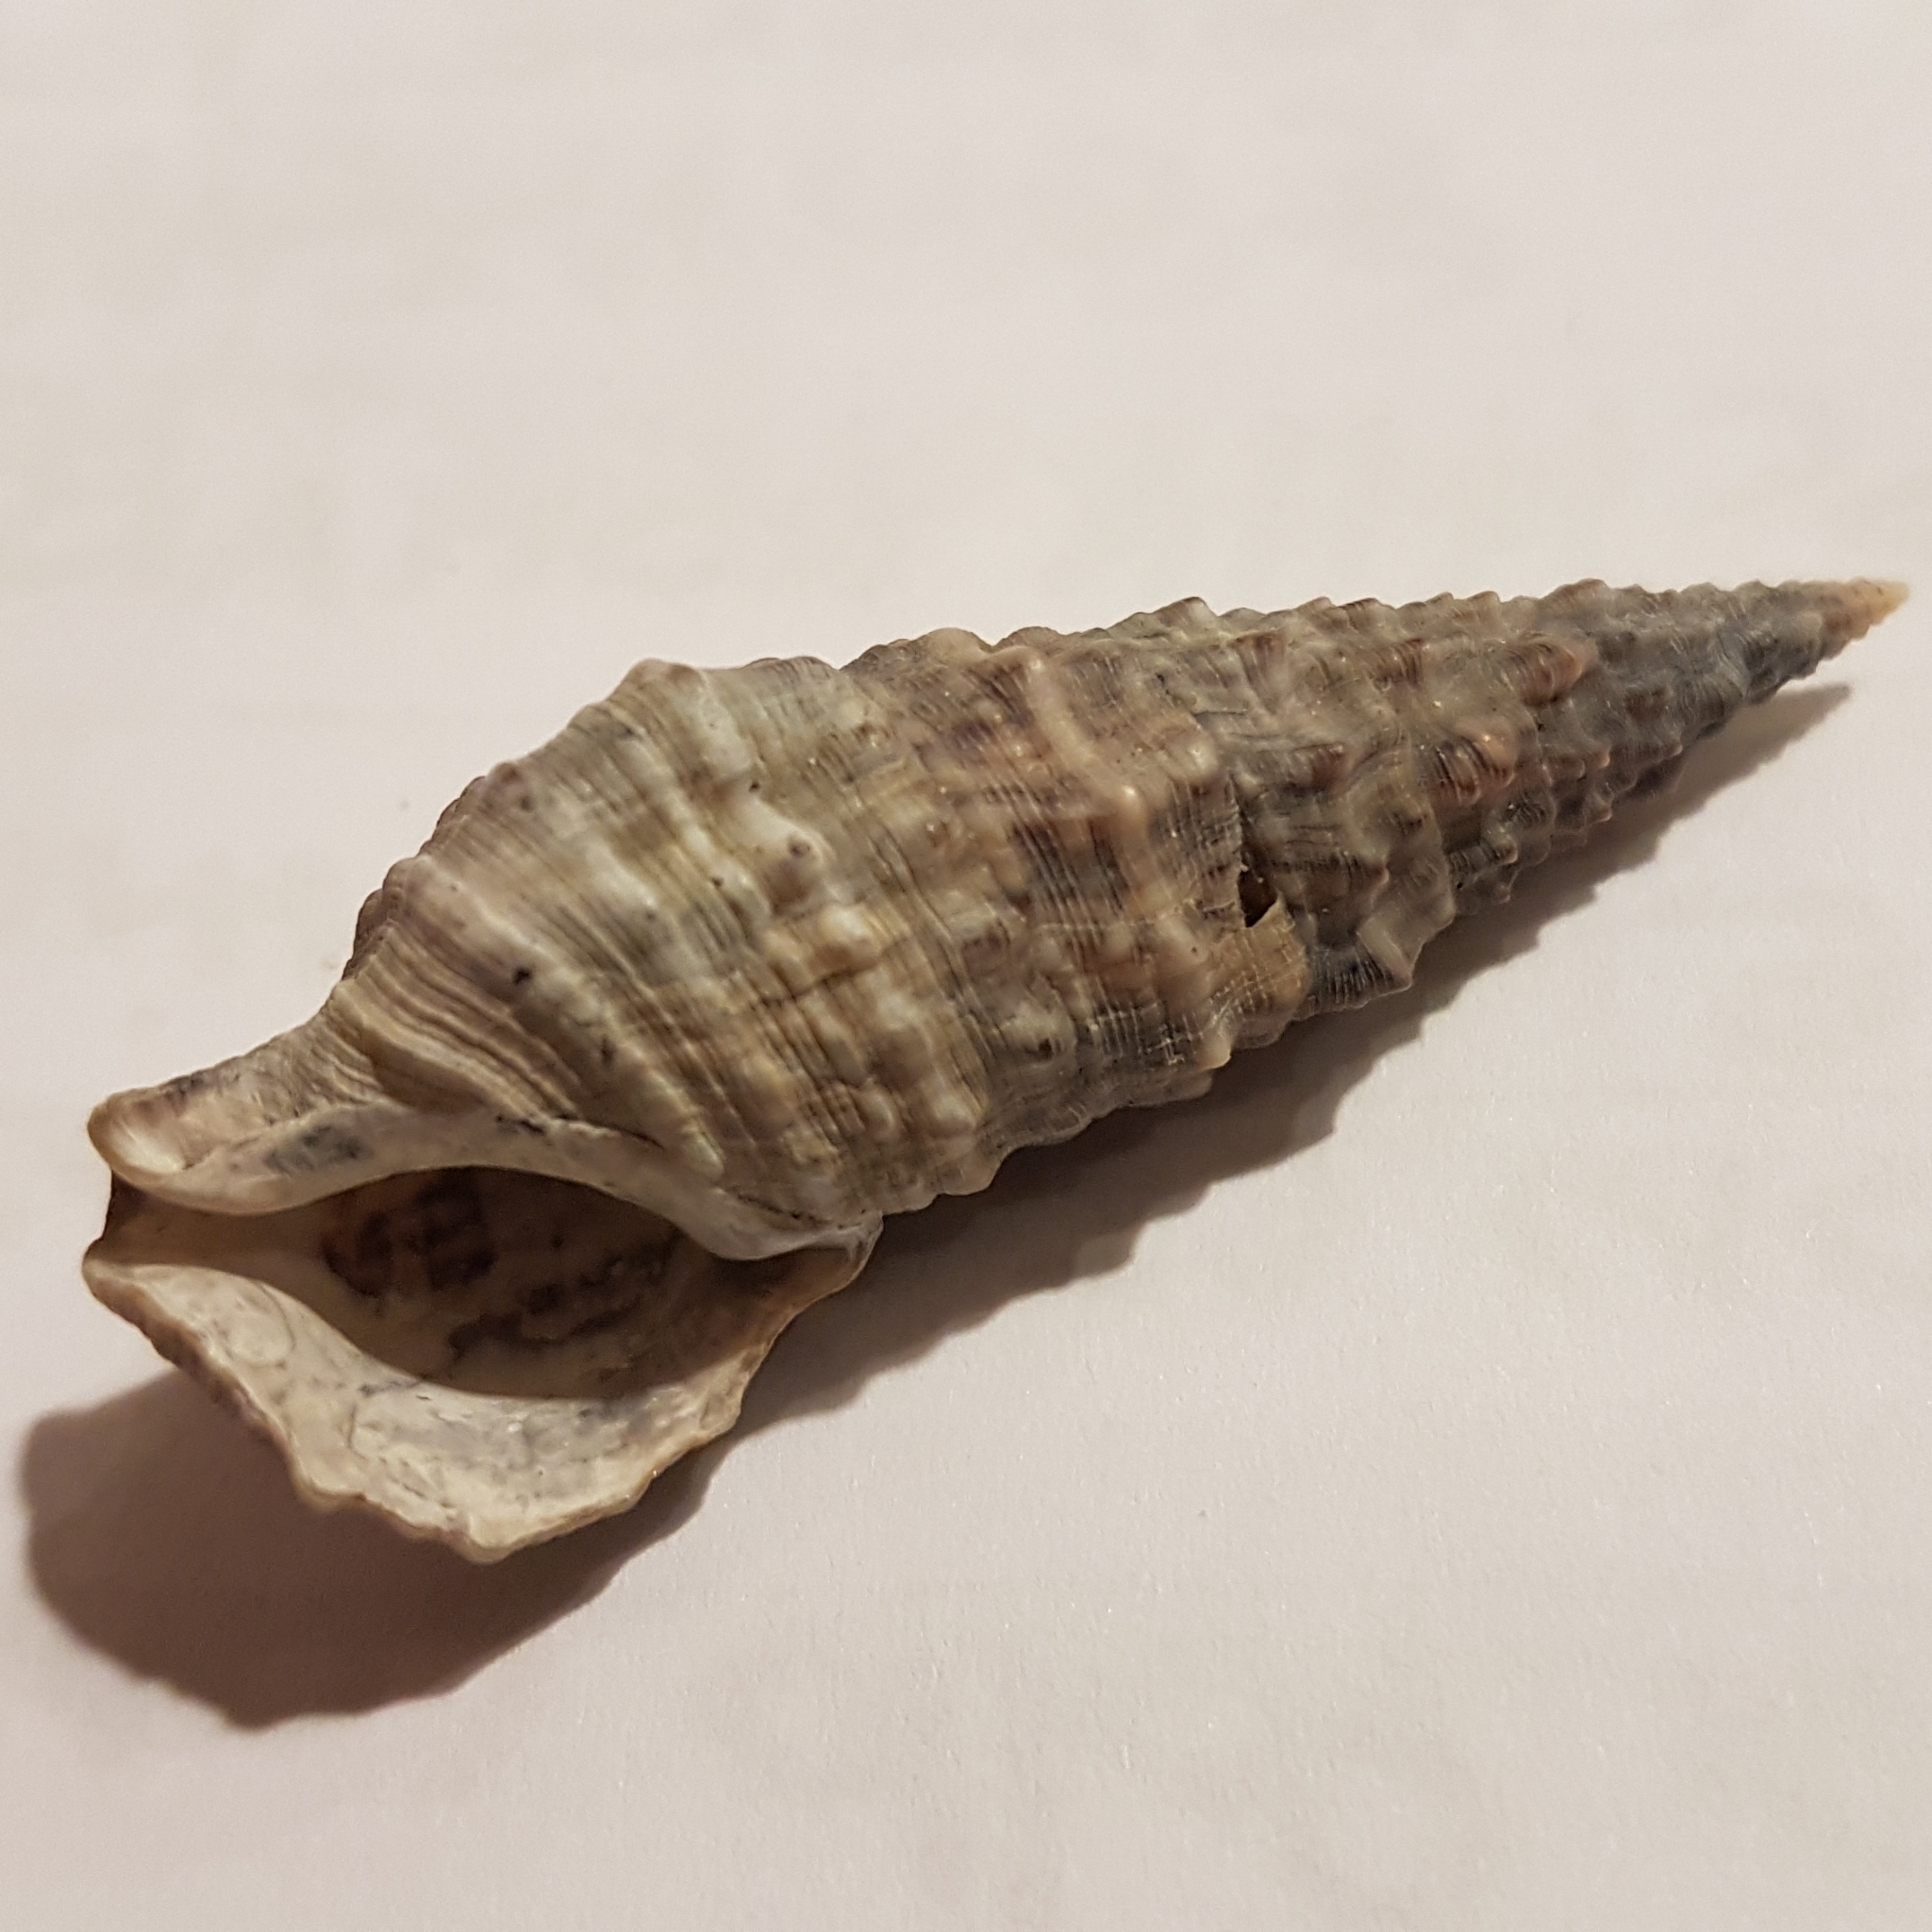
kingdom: Animalia
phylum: Mollusca
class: Gastropoda
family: Cerithiidae
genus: Cerithium
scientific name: Cerithium vulgatum
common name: European cerith
